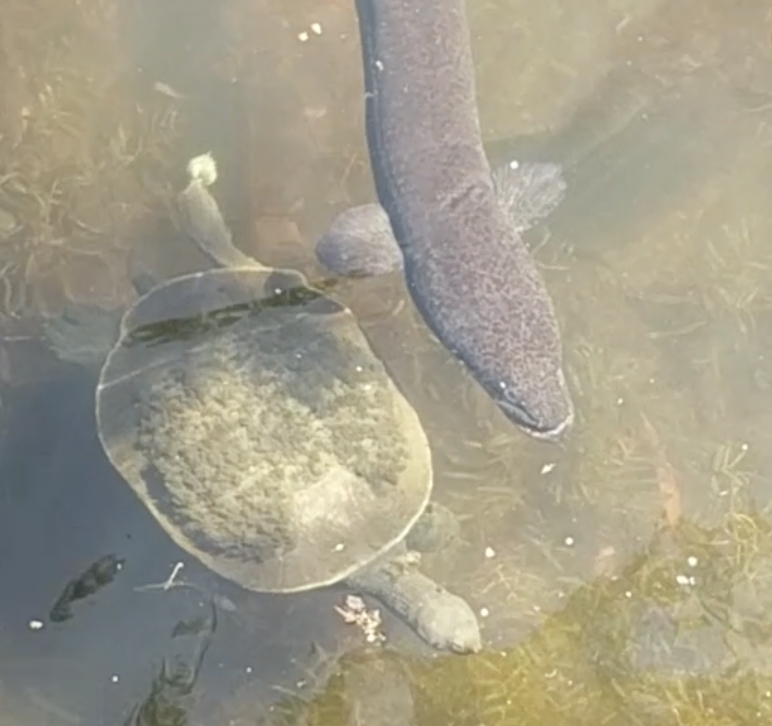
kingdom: Animalia
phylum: Chordata
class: Testudines
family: Chelidae
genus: Emydura
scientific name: Emydura macquarii
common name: Murray river turtle
